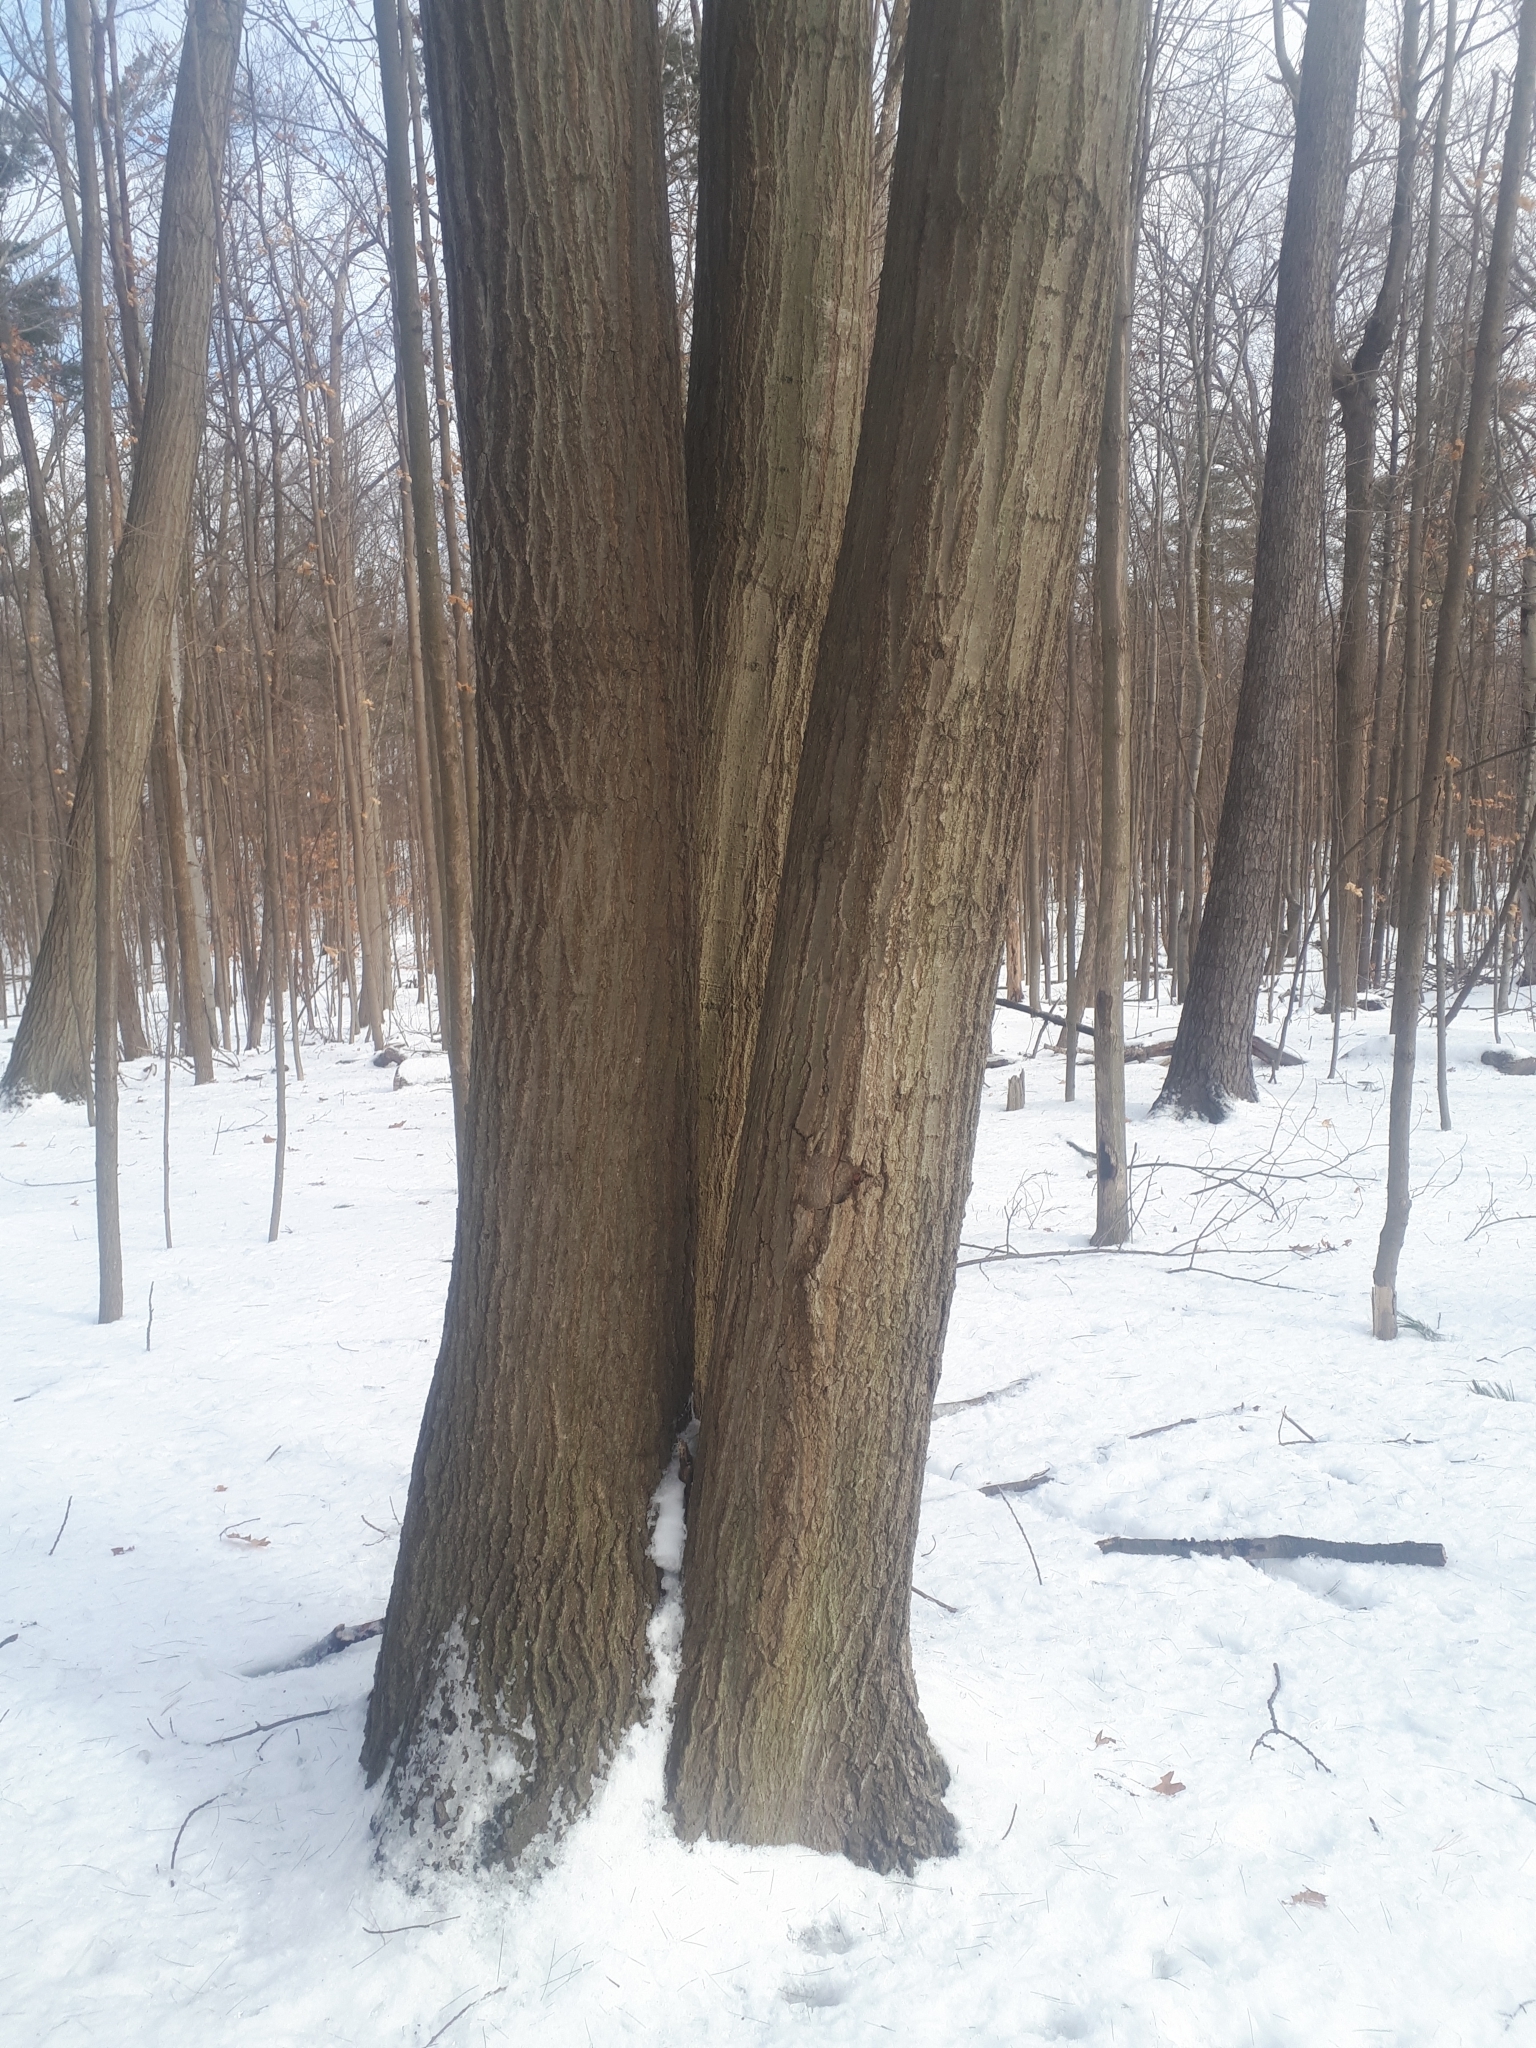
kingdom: Plantae
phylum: Tracheophyta
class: Magnoliopsida
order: Fagales
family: Fagaceae
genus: Quercus
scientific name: Quercus rubra
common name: Red oak
